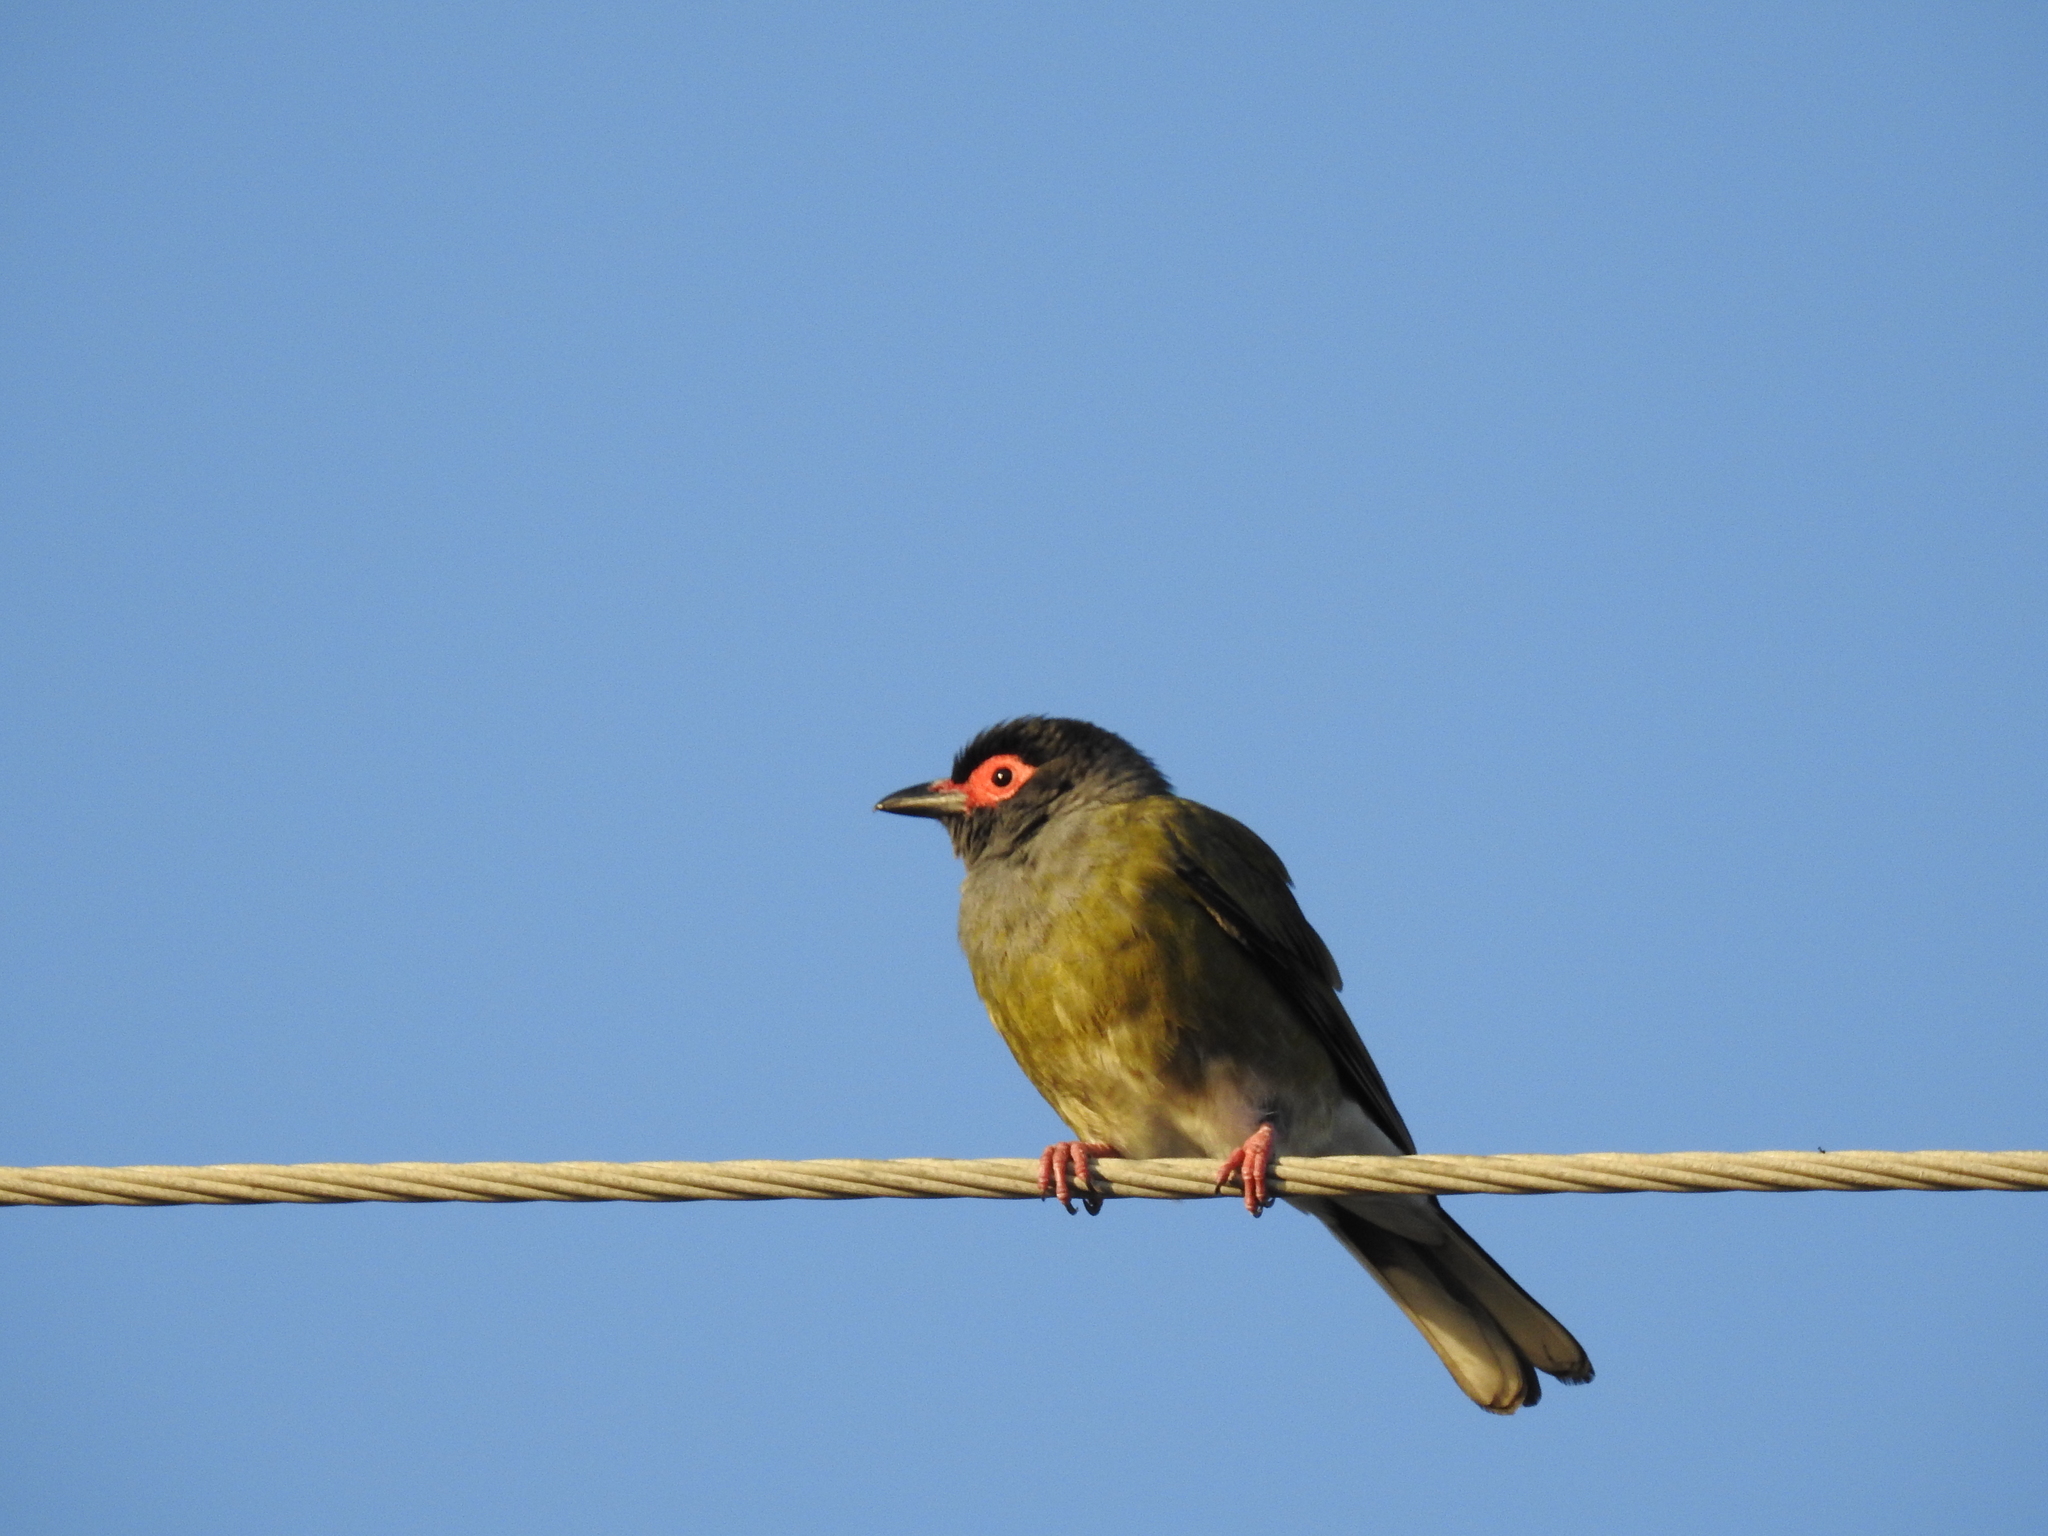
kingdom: Animalia
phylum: Chordata
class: Aves
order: Passeriformes
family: Oriolidae
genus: Sphecotheres
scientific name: Sphecotheres vieilloti
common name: Australasian figbird
